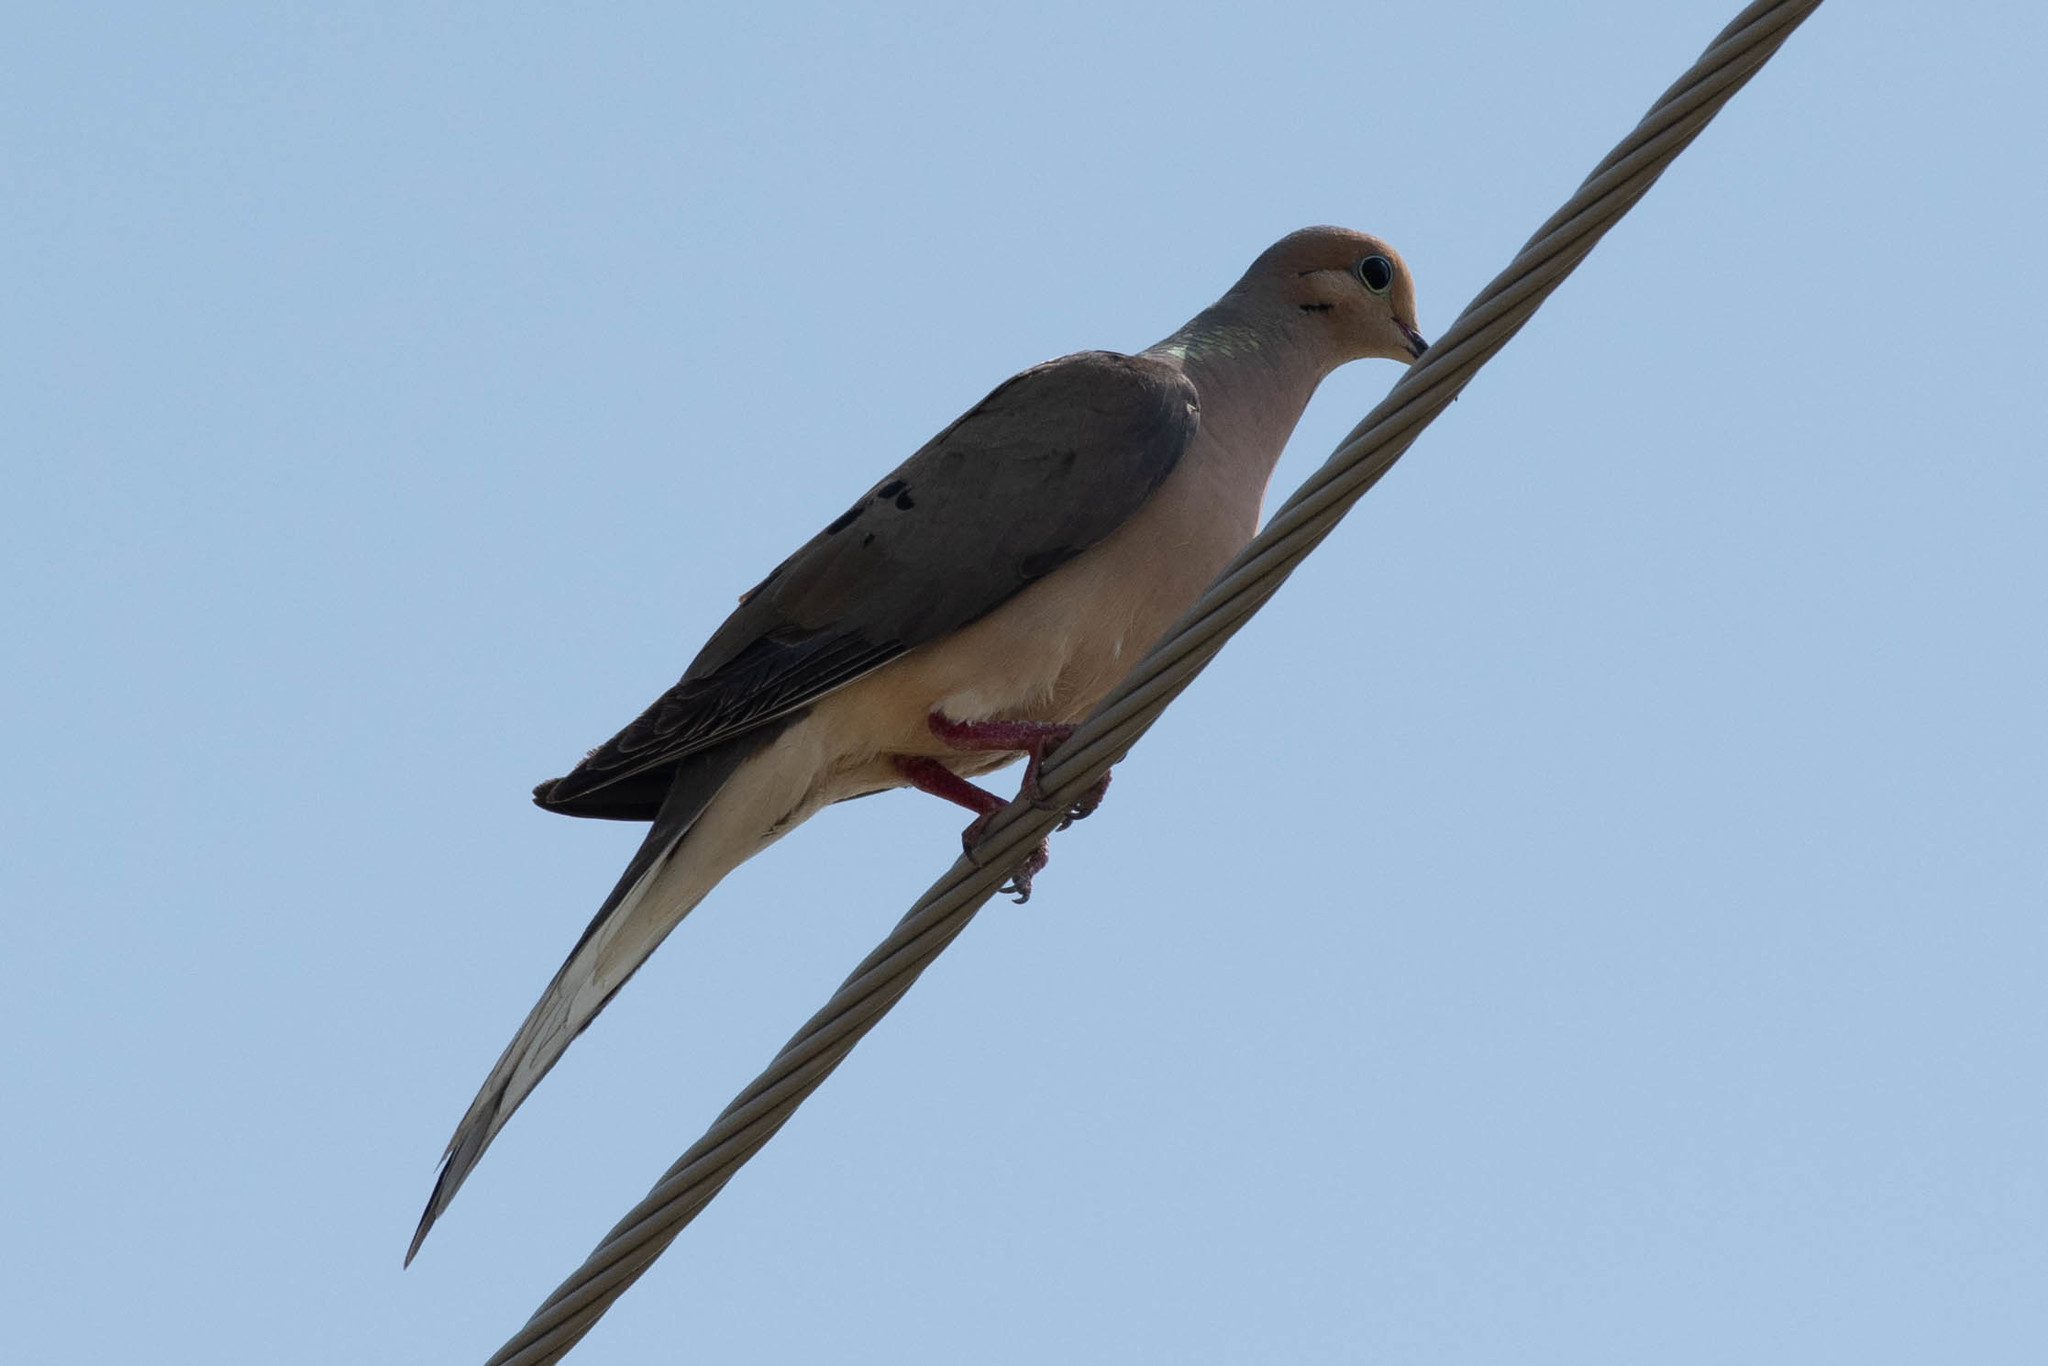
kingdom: Animalia
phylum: Chordata
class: Aves
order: Columbiformes
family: Columbidae
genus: Zenaida
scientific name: Zenaida macroura
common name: Mourning dove
